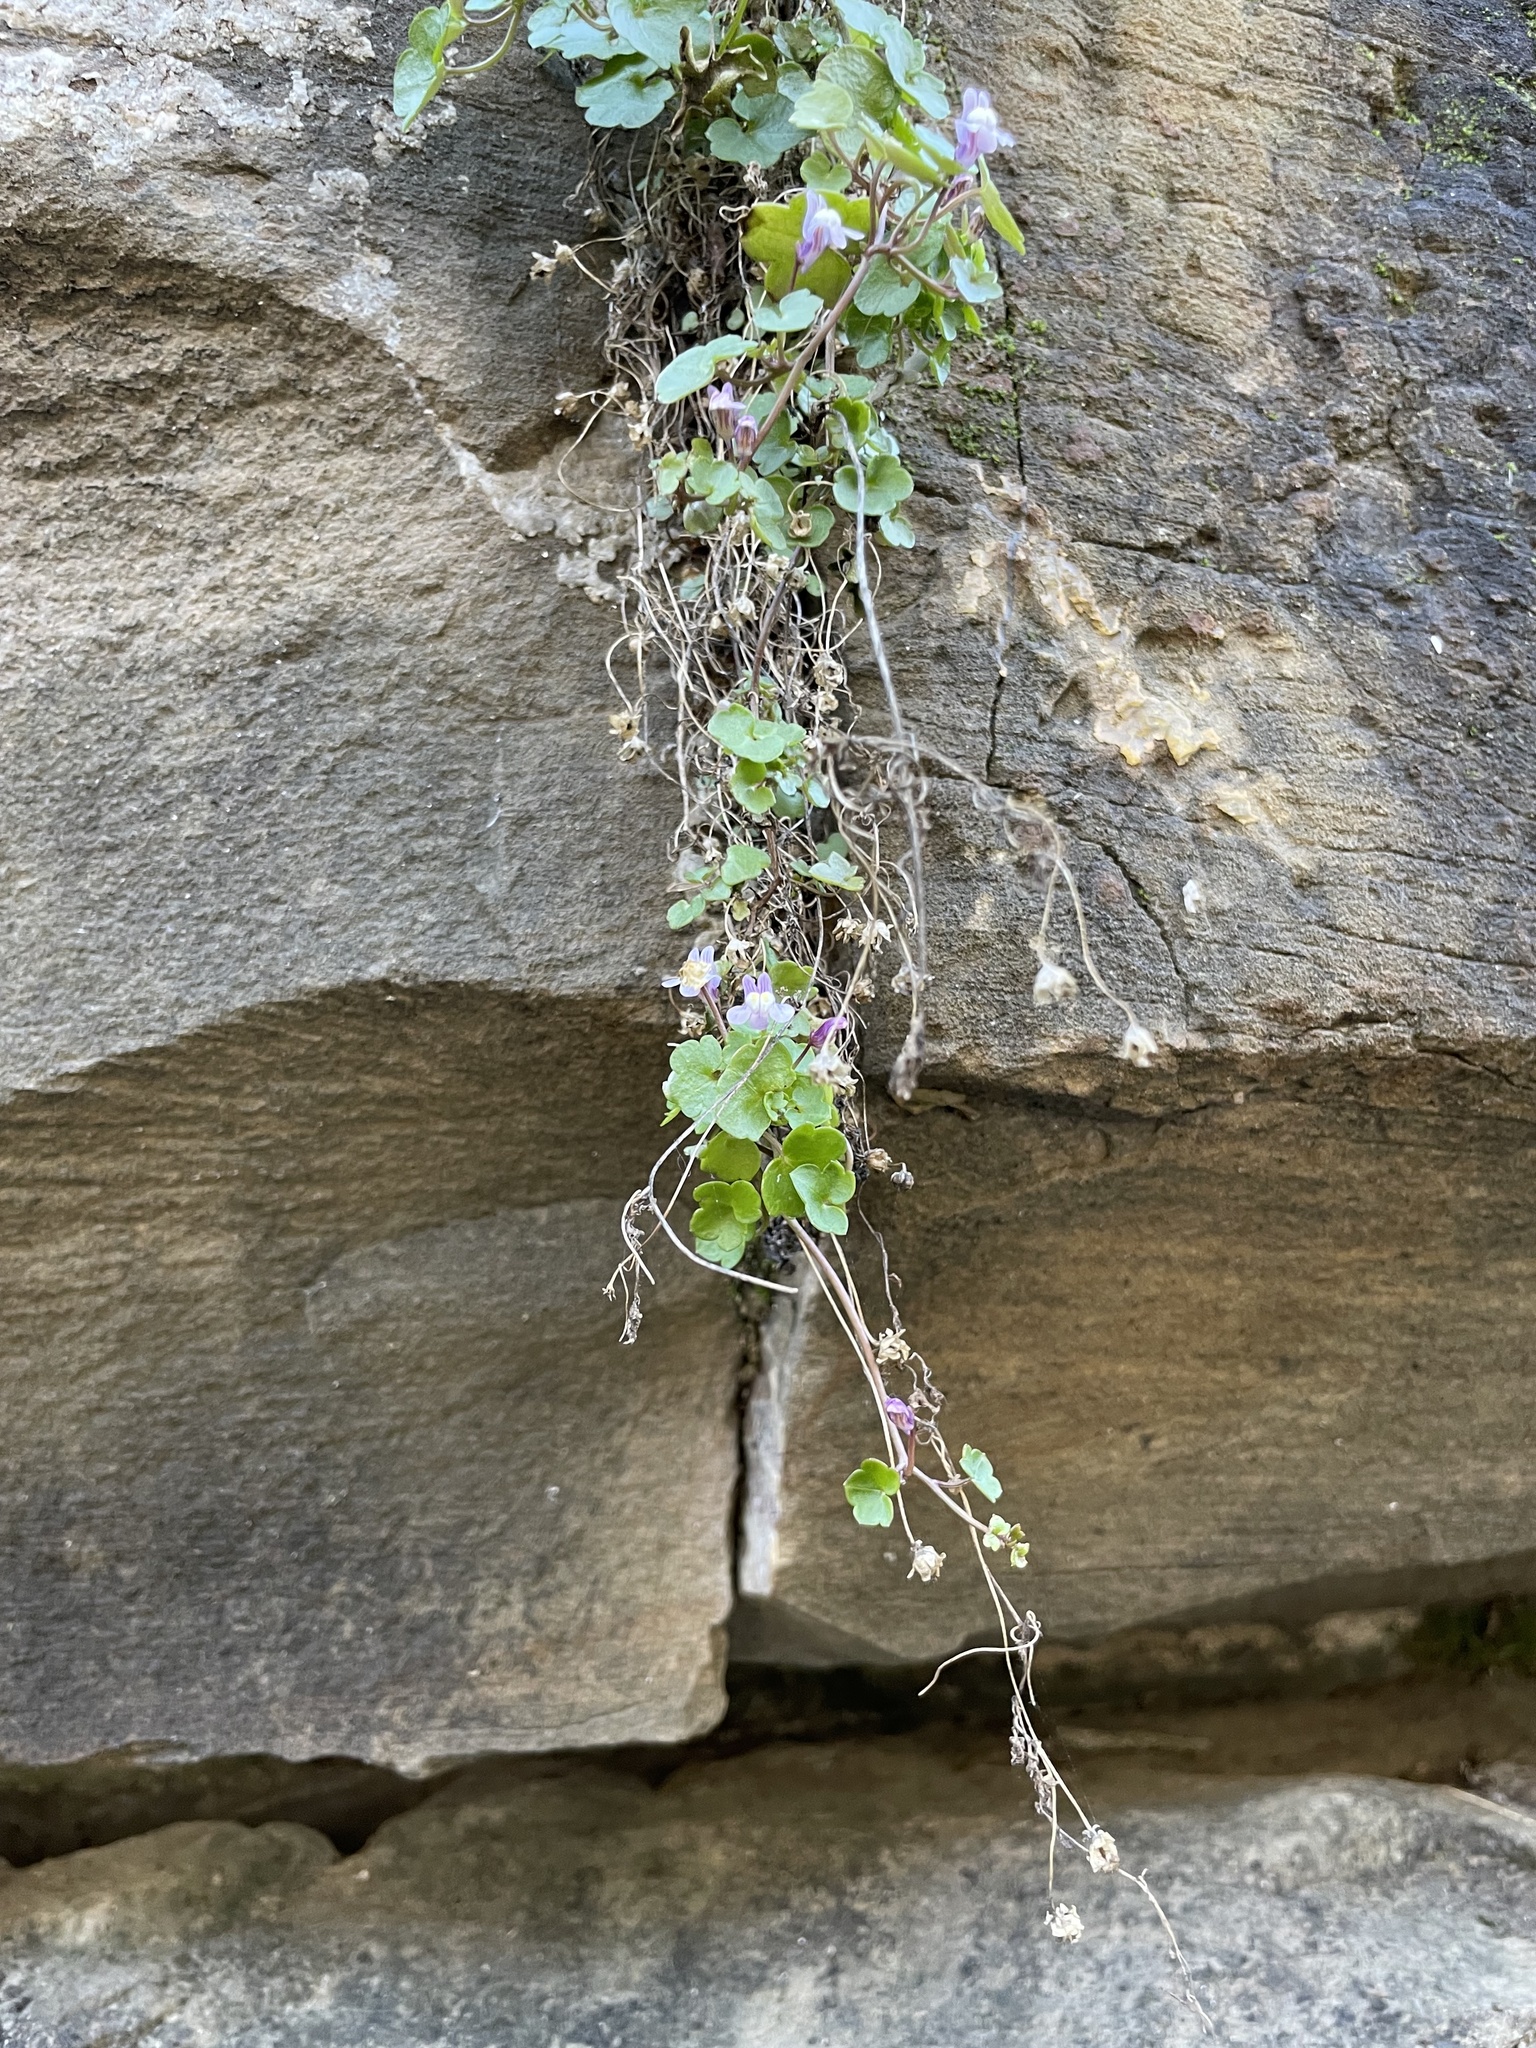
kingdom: Plantae
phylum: Tracheophyta
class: Magnoliopsida
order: Lamiales
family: Plantaginaceae
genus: Cymbalaria
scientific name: Cymbalaria muralis
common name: Ivy-leaved toadflax
